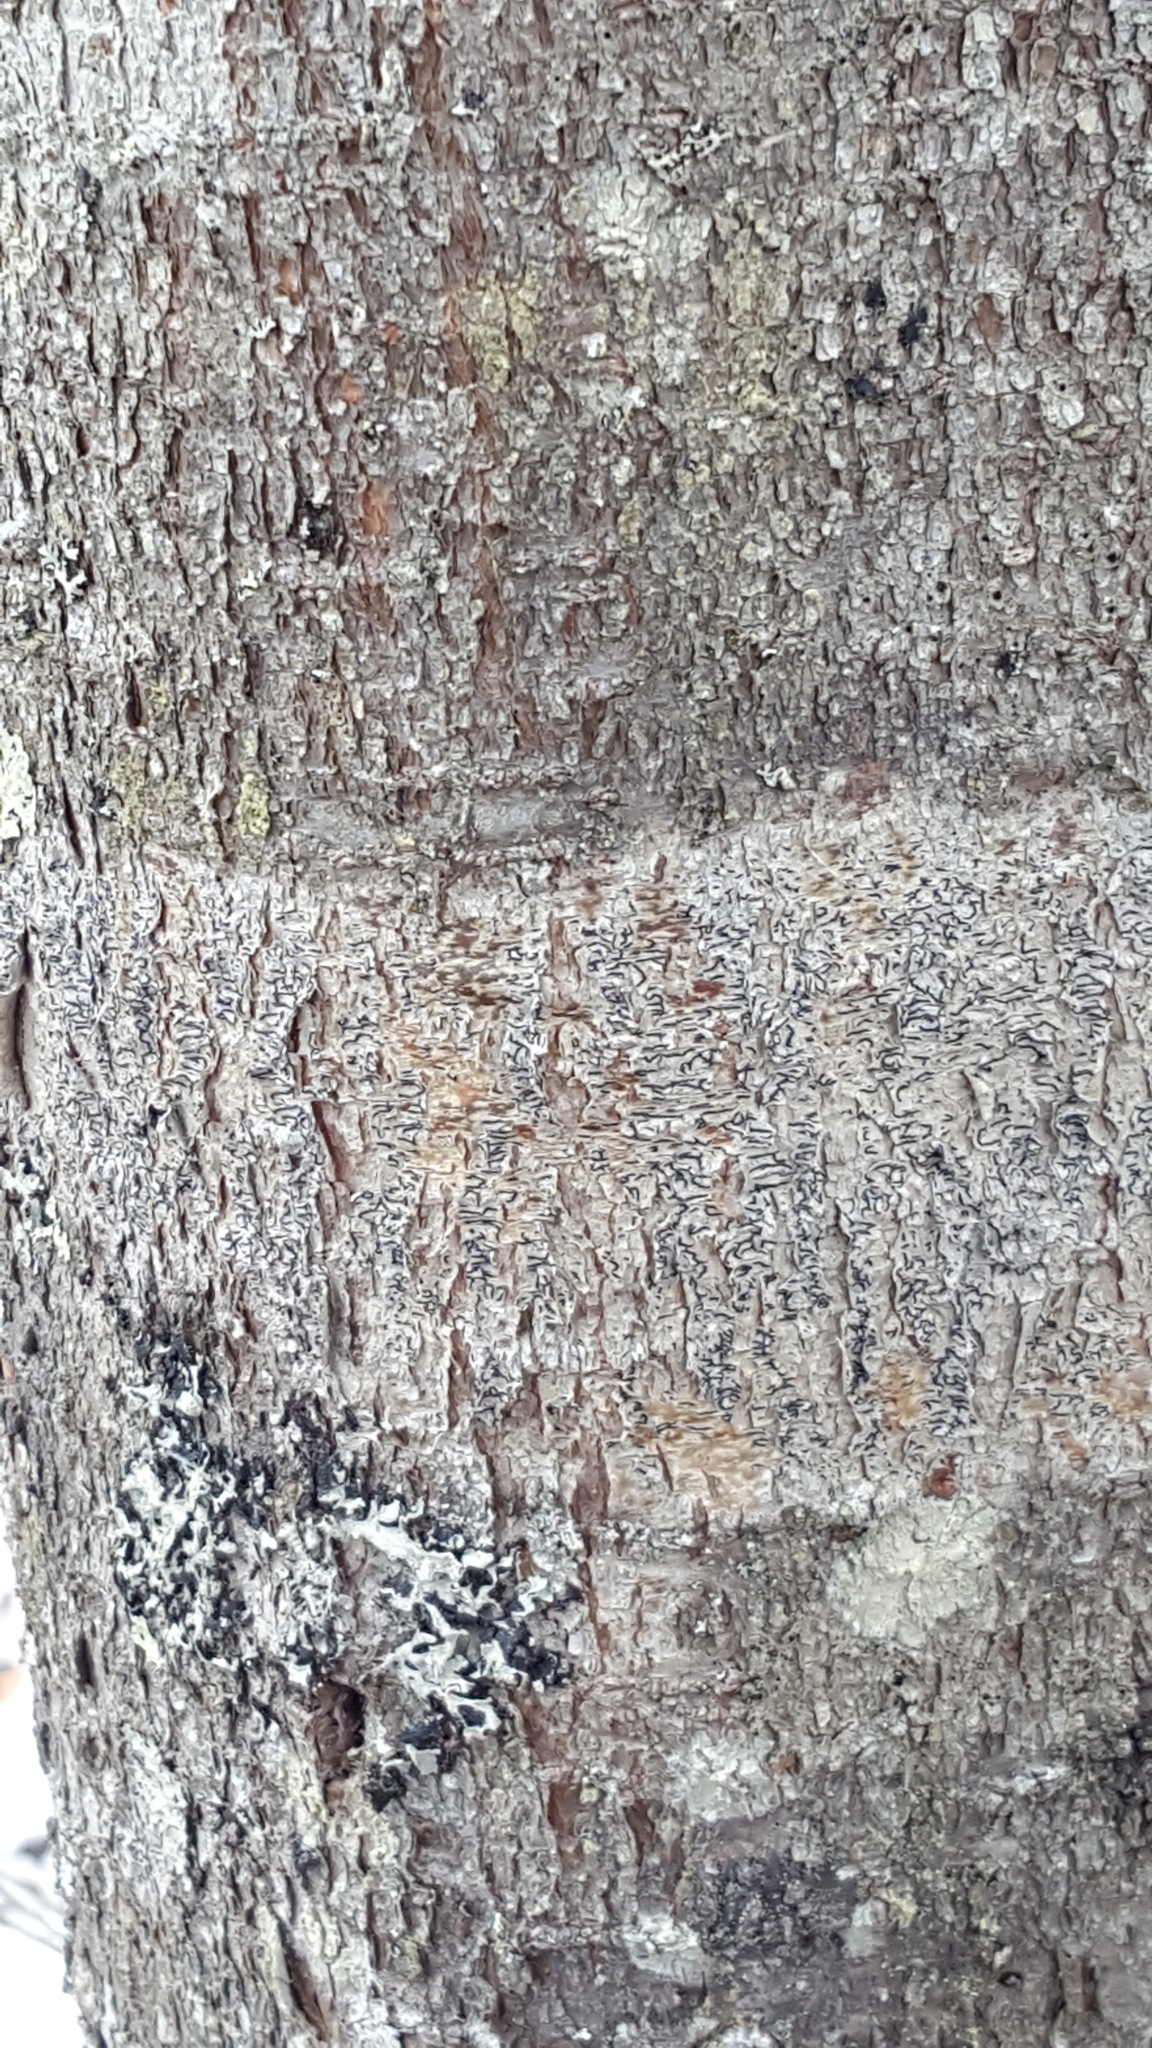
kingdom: Fungi
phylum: Ascomycota
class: Lecanoromycetes
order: Ostropales
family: Graphidaceae
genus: Graphis
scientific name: Graphis scripta
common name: Script lichen
